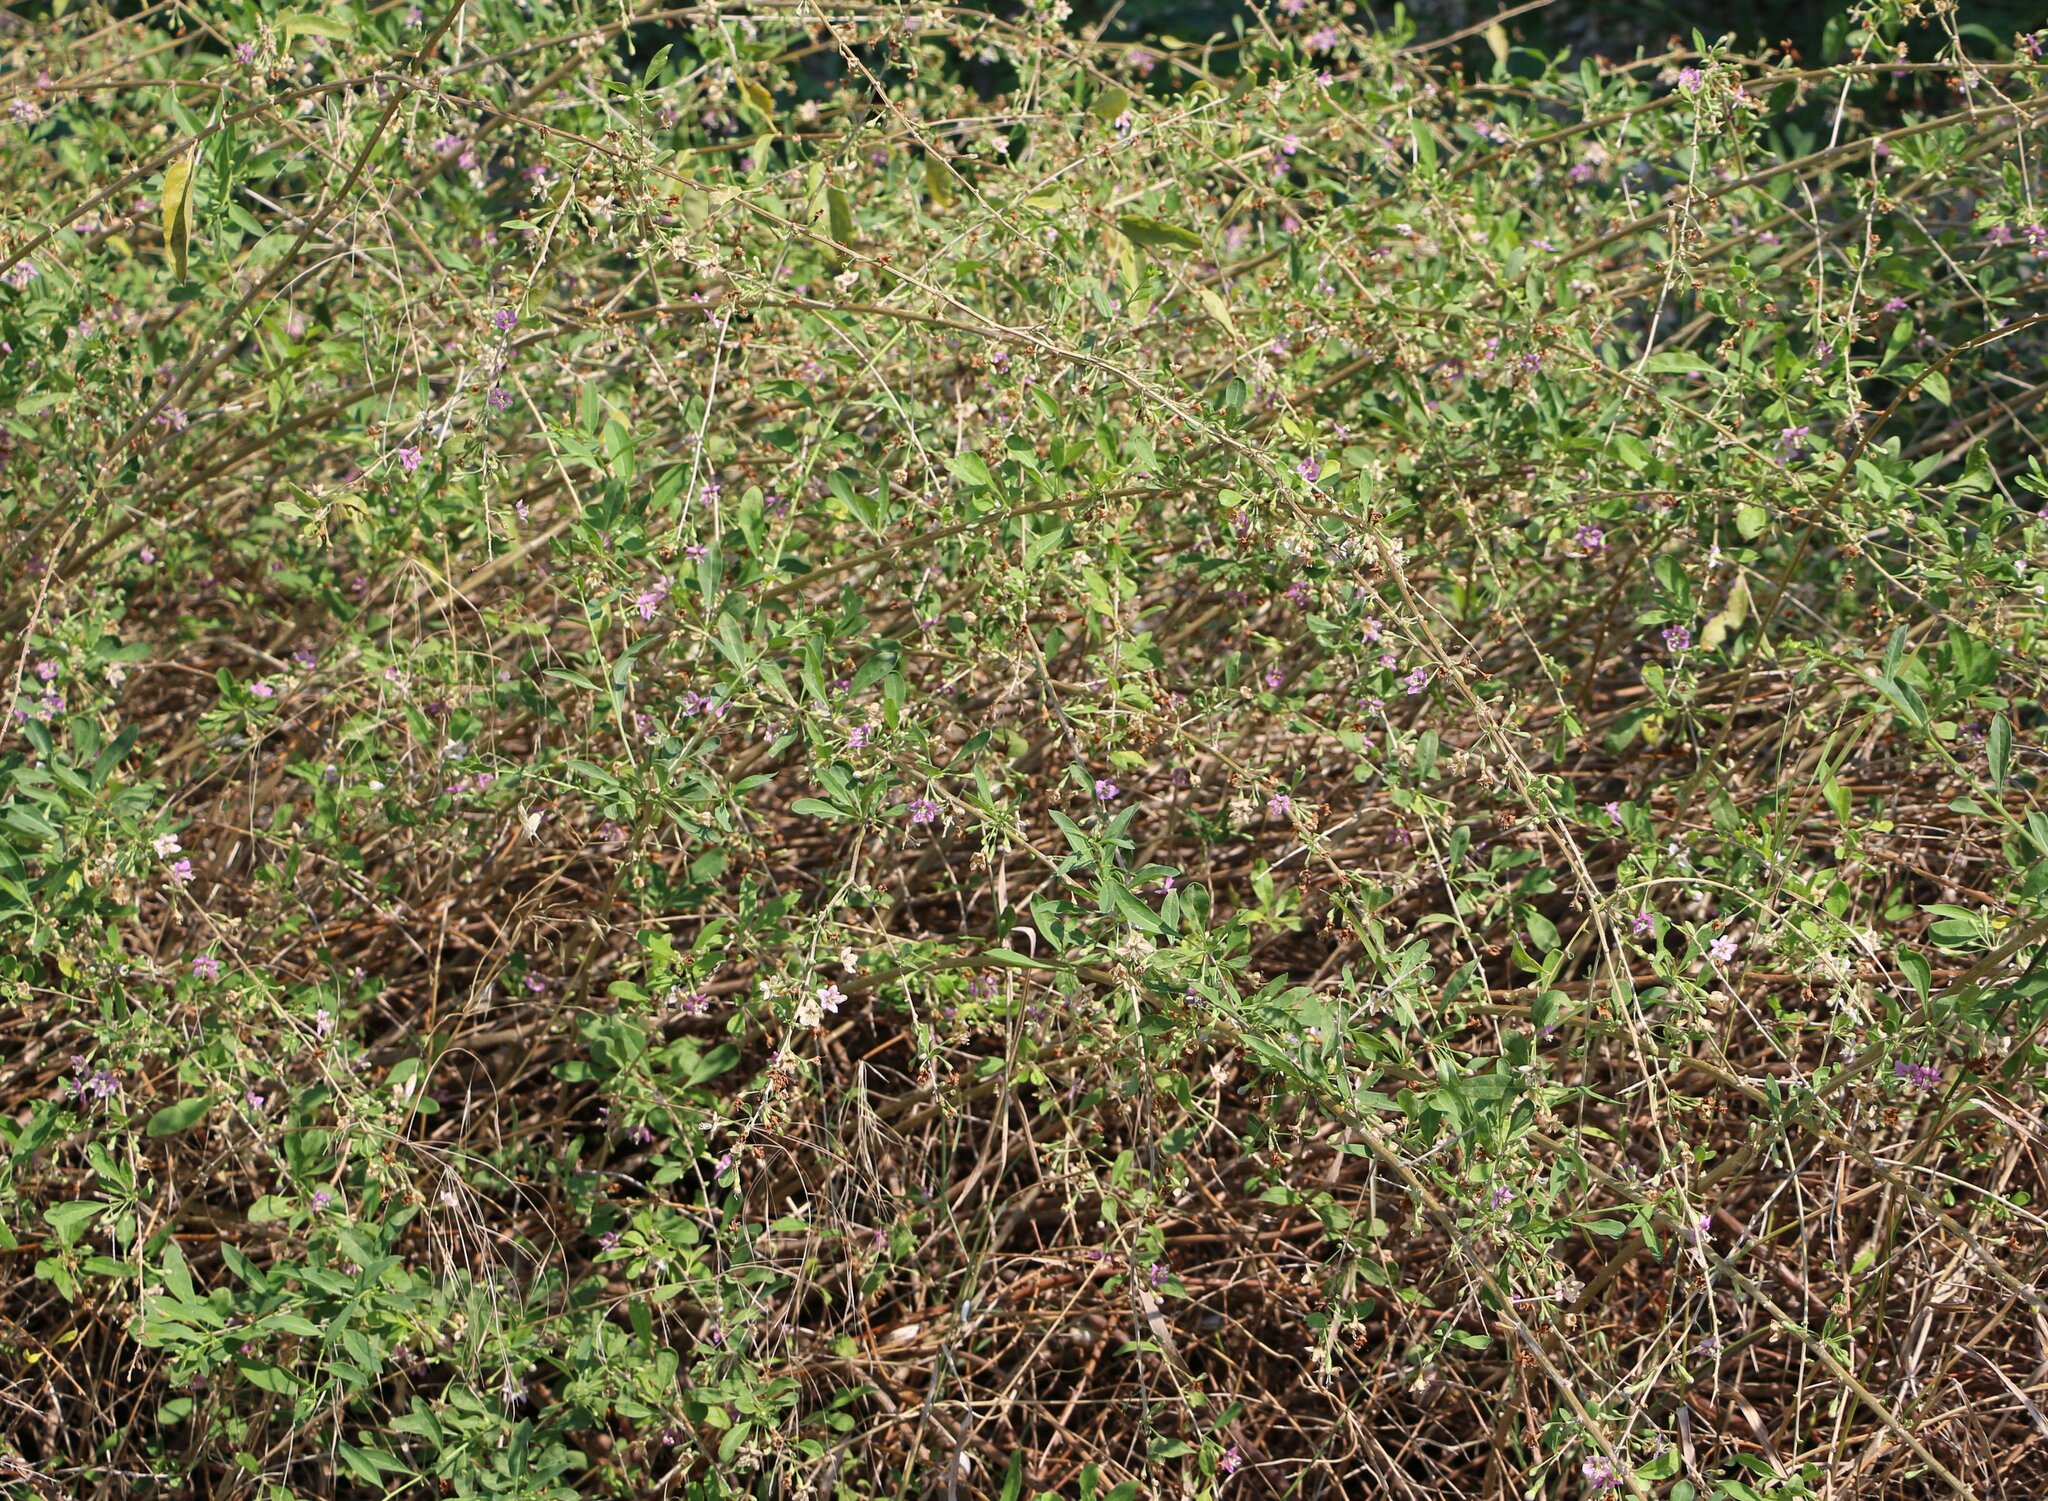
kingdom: Plantae
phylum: Tracheophyta
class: Magnoliopsida
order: Solanales
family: Solanaceae
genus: Lycium
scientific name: Lycium barbarum
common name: Duke of argyll's teaplant
